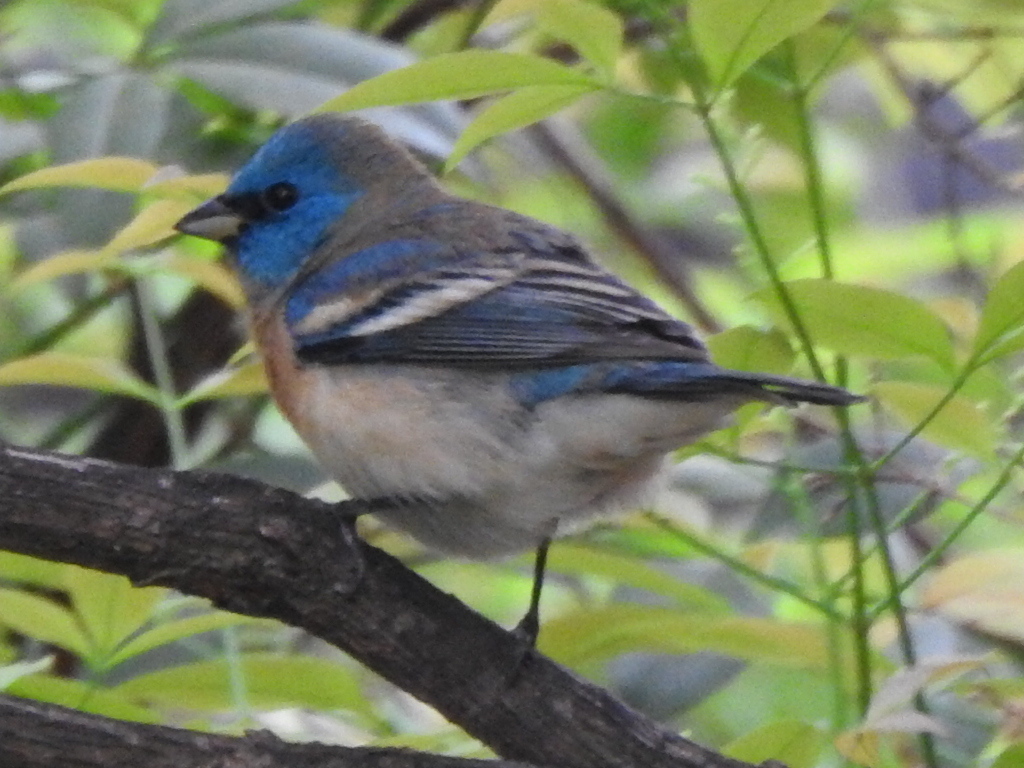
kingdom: Animalia
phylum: Chordata
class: Aves
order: Passeriformes
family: Cardinalidae
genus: Passerina
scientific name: Passerina amoena
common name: Lazuli bunting
